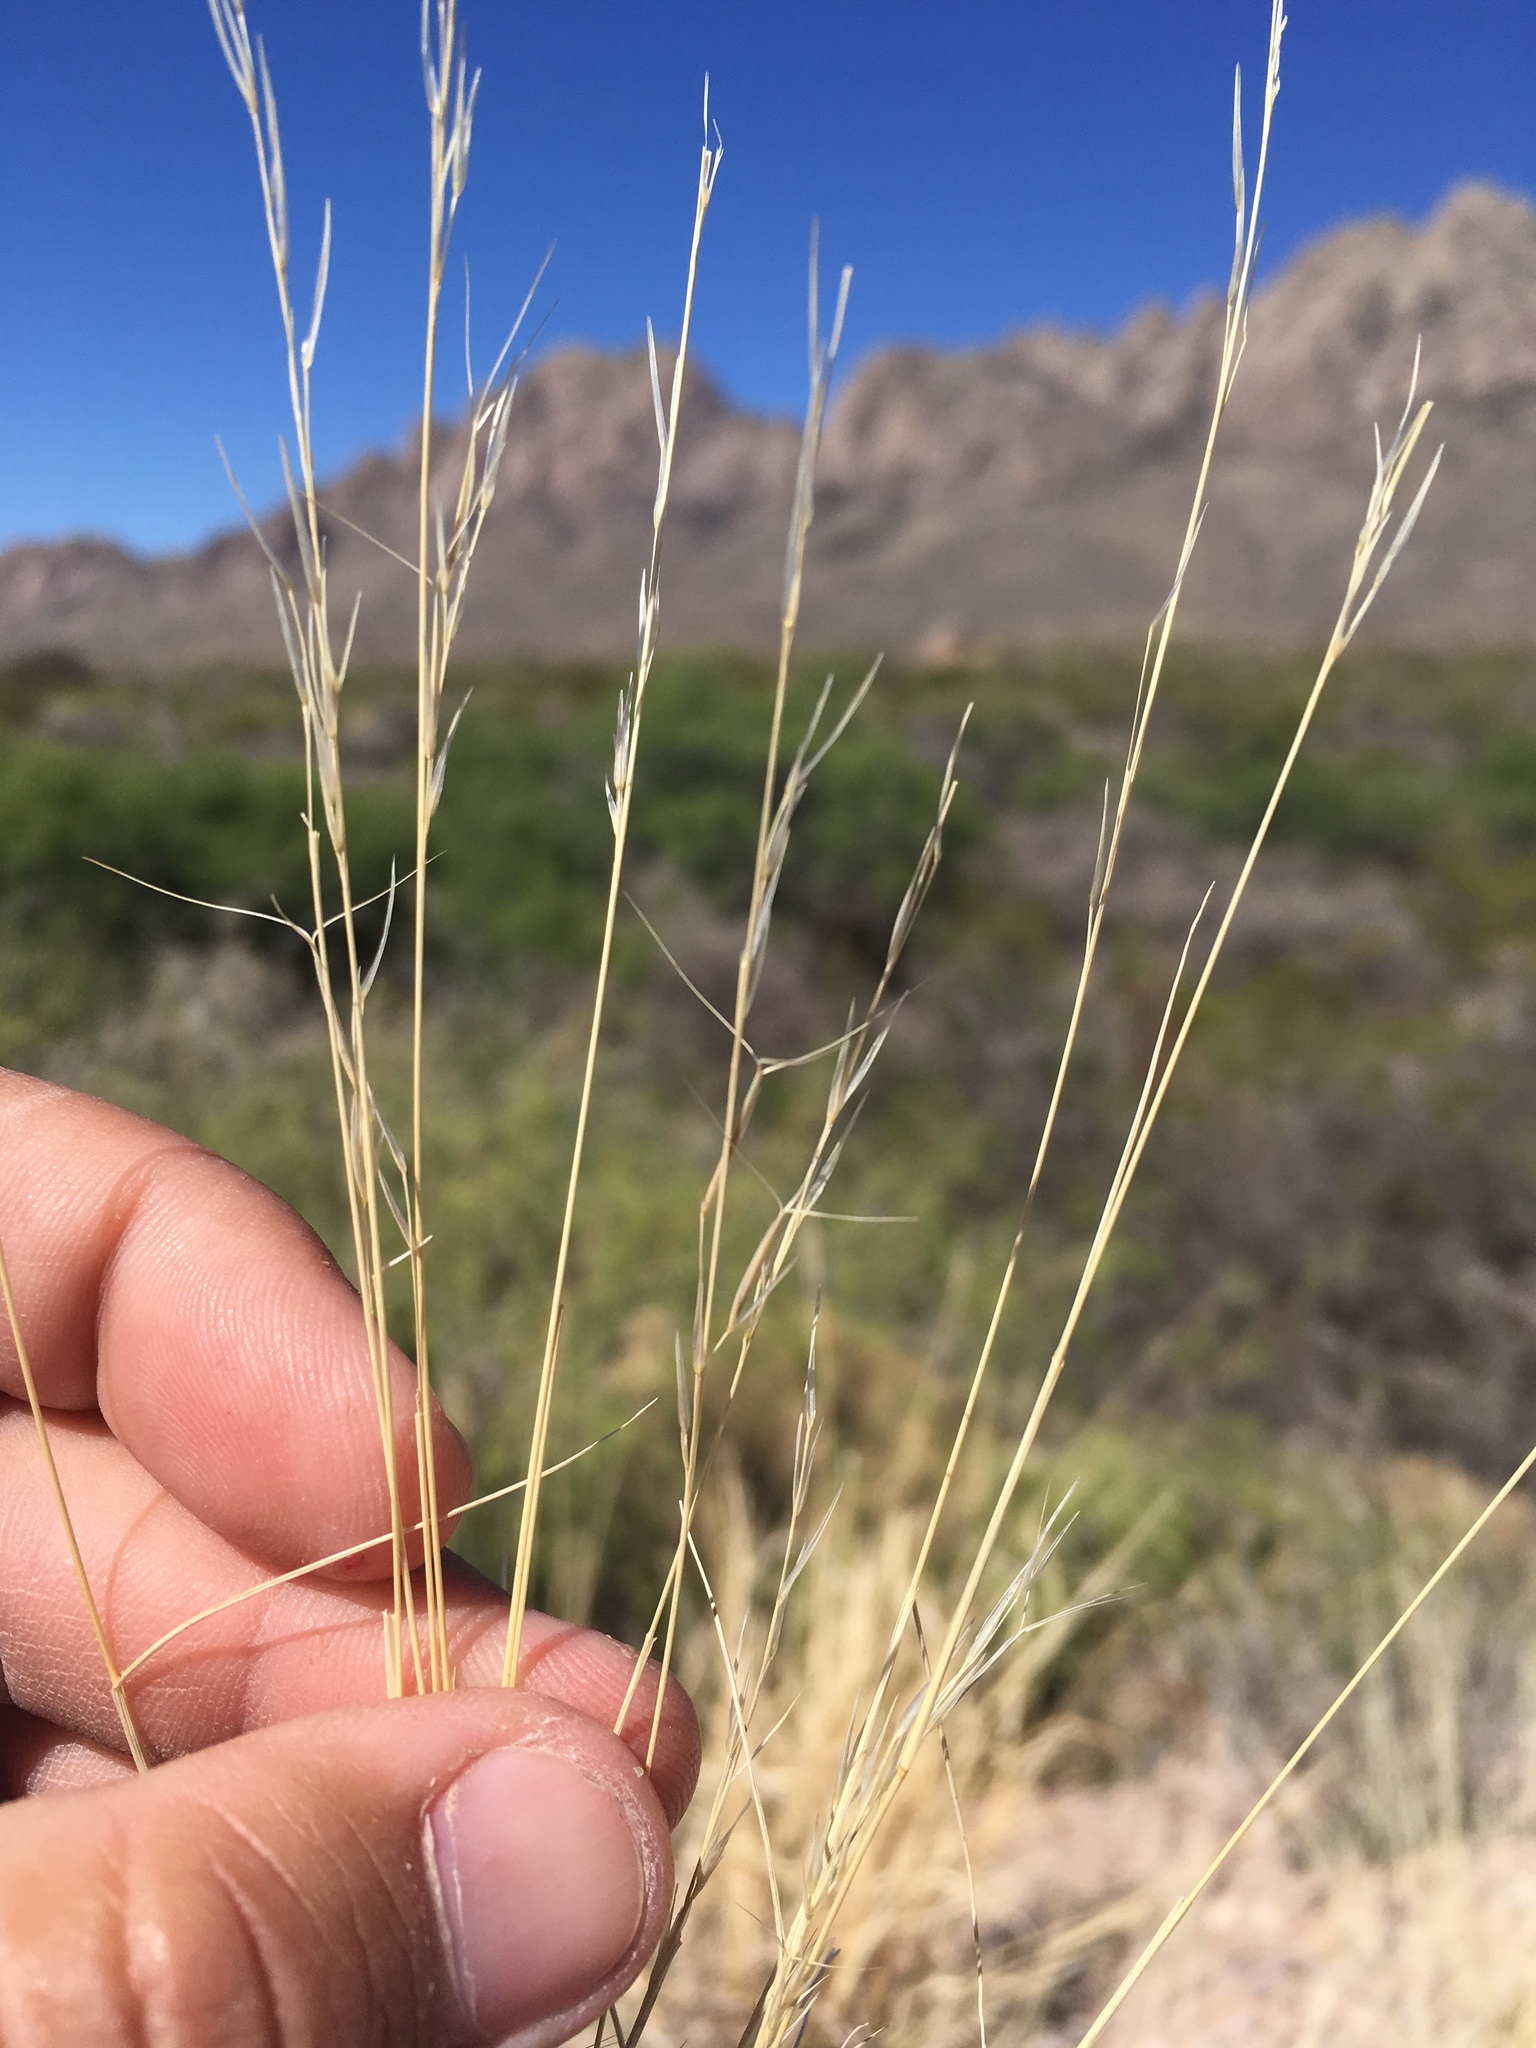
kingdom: Plantae
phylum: Tracheophyta
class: Liliopsida
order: Poales
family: Poaceae
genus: Aristida
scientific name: Aristida adscensionis
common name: Sixweeks threeawn
